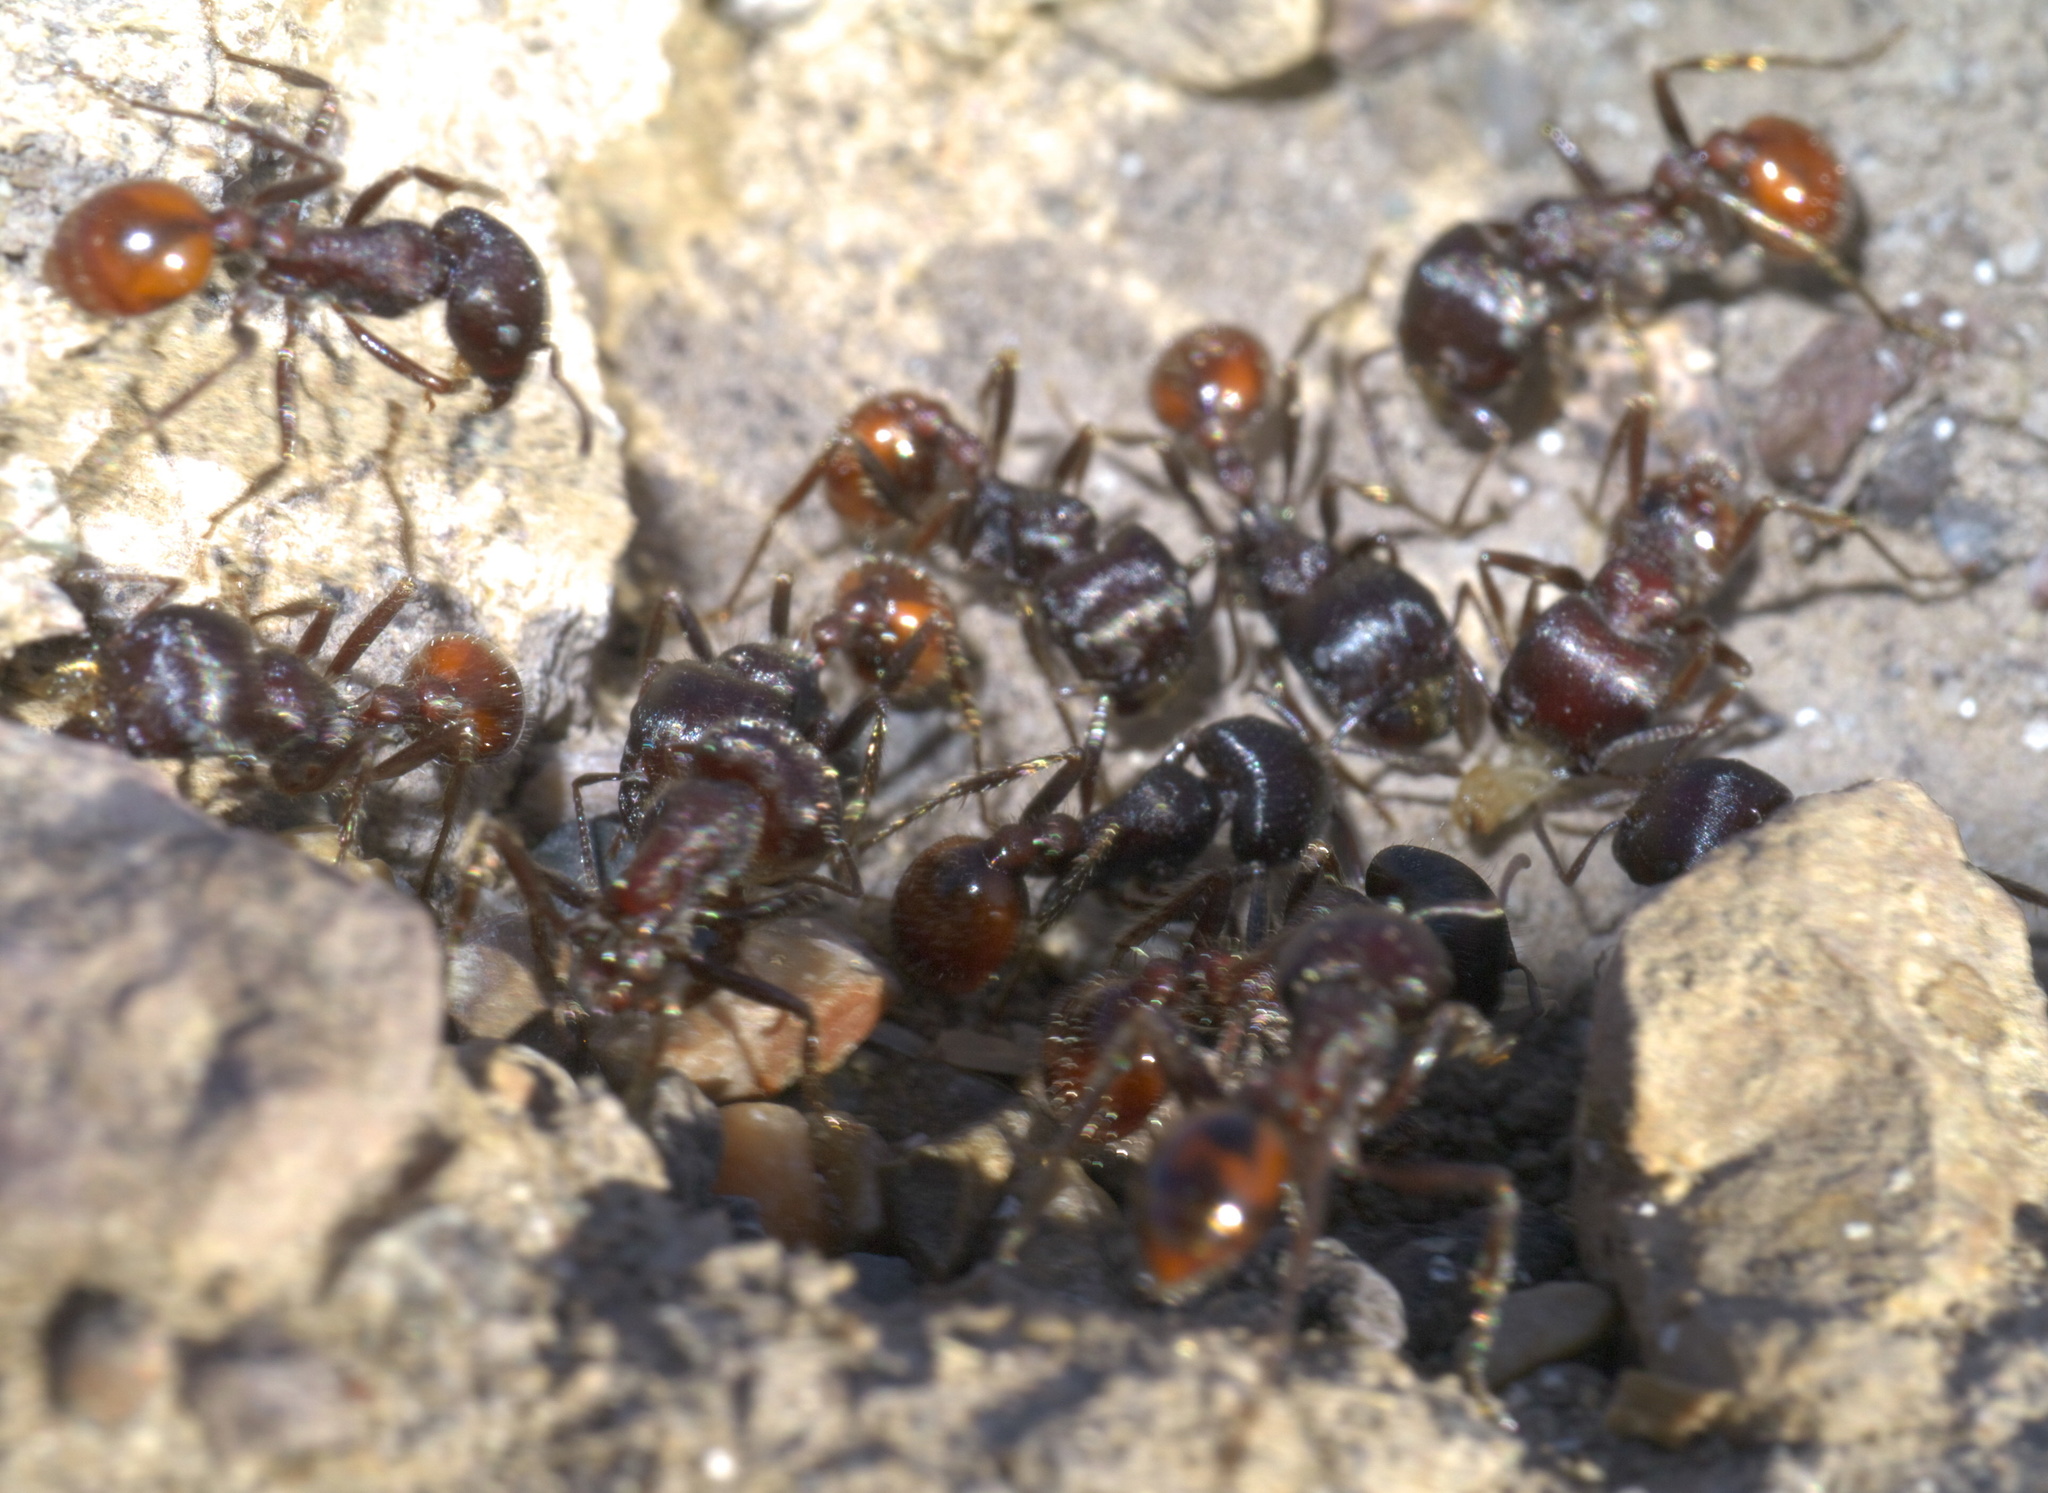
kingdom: Animalia
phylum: Arthropoda
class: Insecta
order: Hymenoptera
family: Formicidae
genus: Pogonomyrmex
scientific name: Pogonomyrmex rugosus
